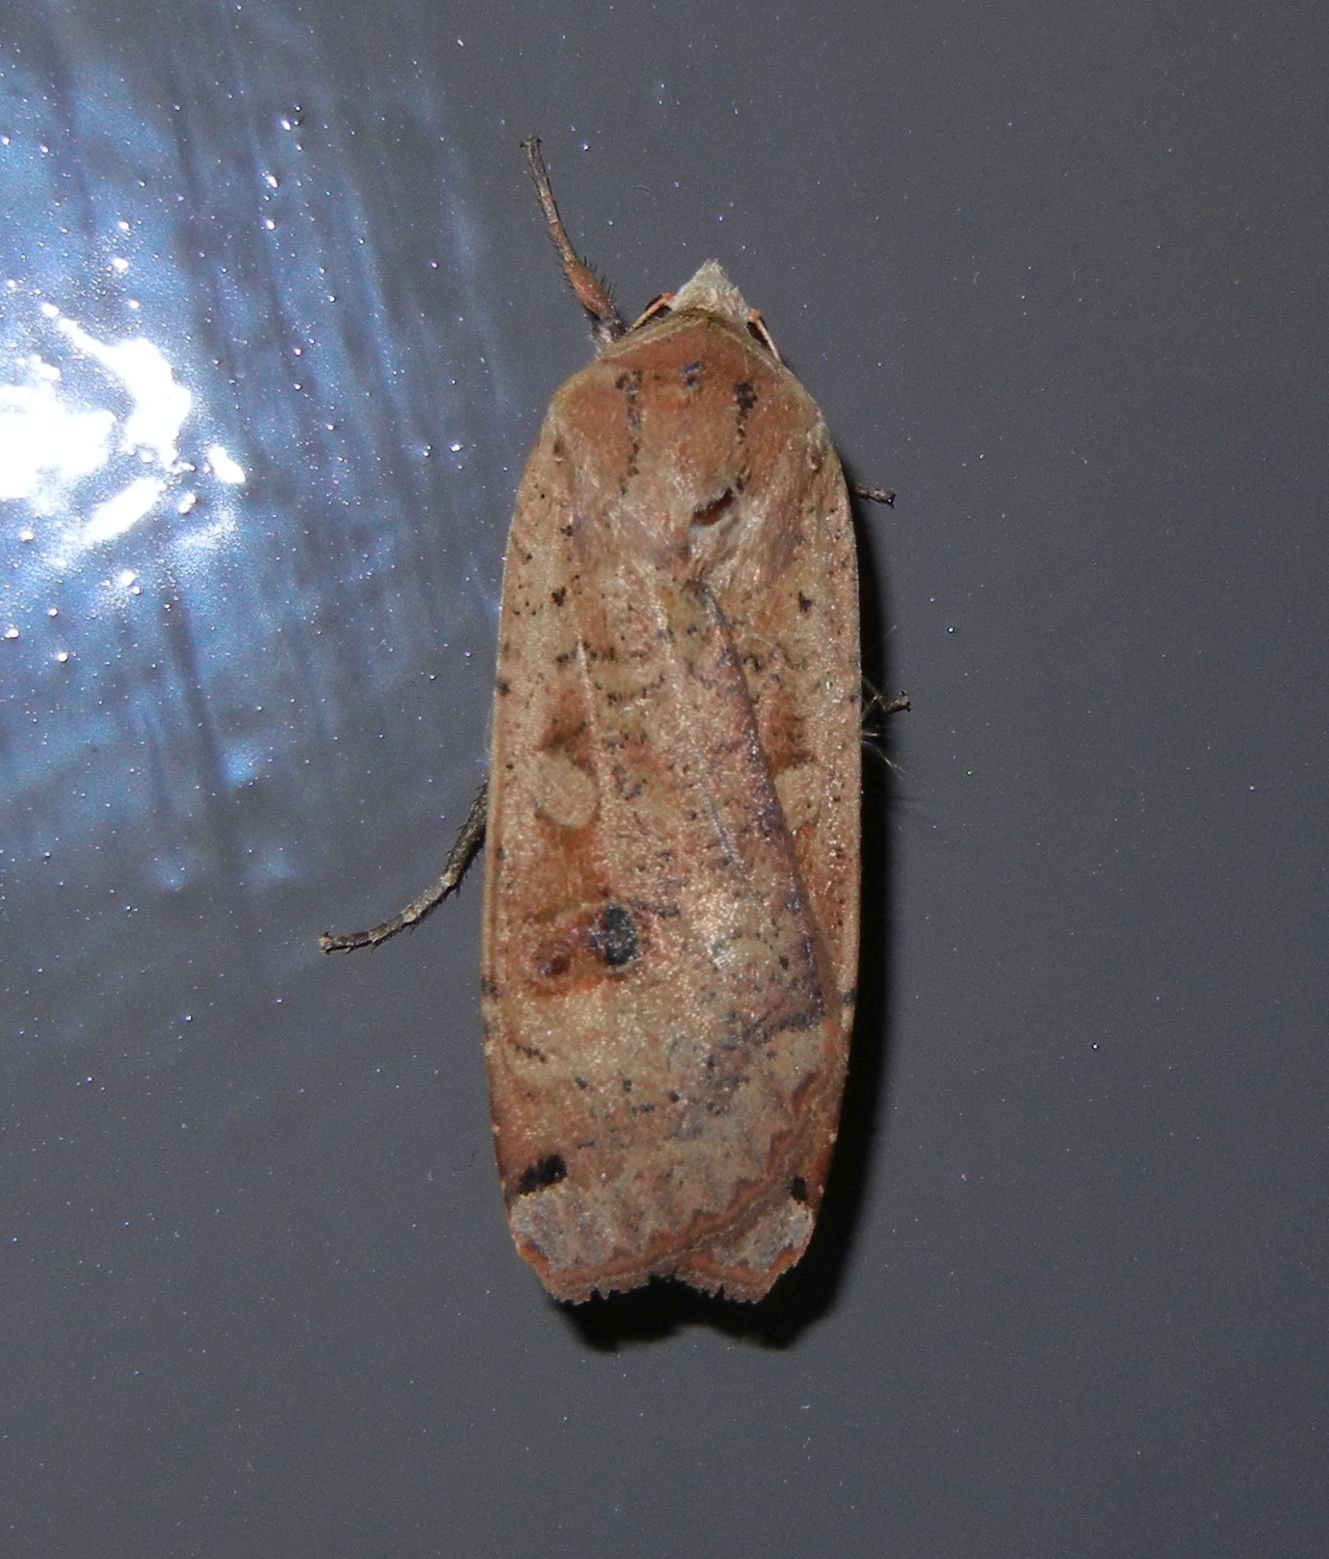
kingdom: Animalia
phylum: Arthropoda
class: Insecta
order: Lepidoptera
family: Noctuidae
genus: Noctua
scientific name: Noctua pronuba
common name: Large yellow underwing
